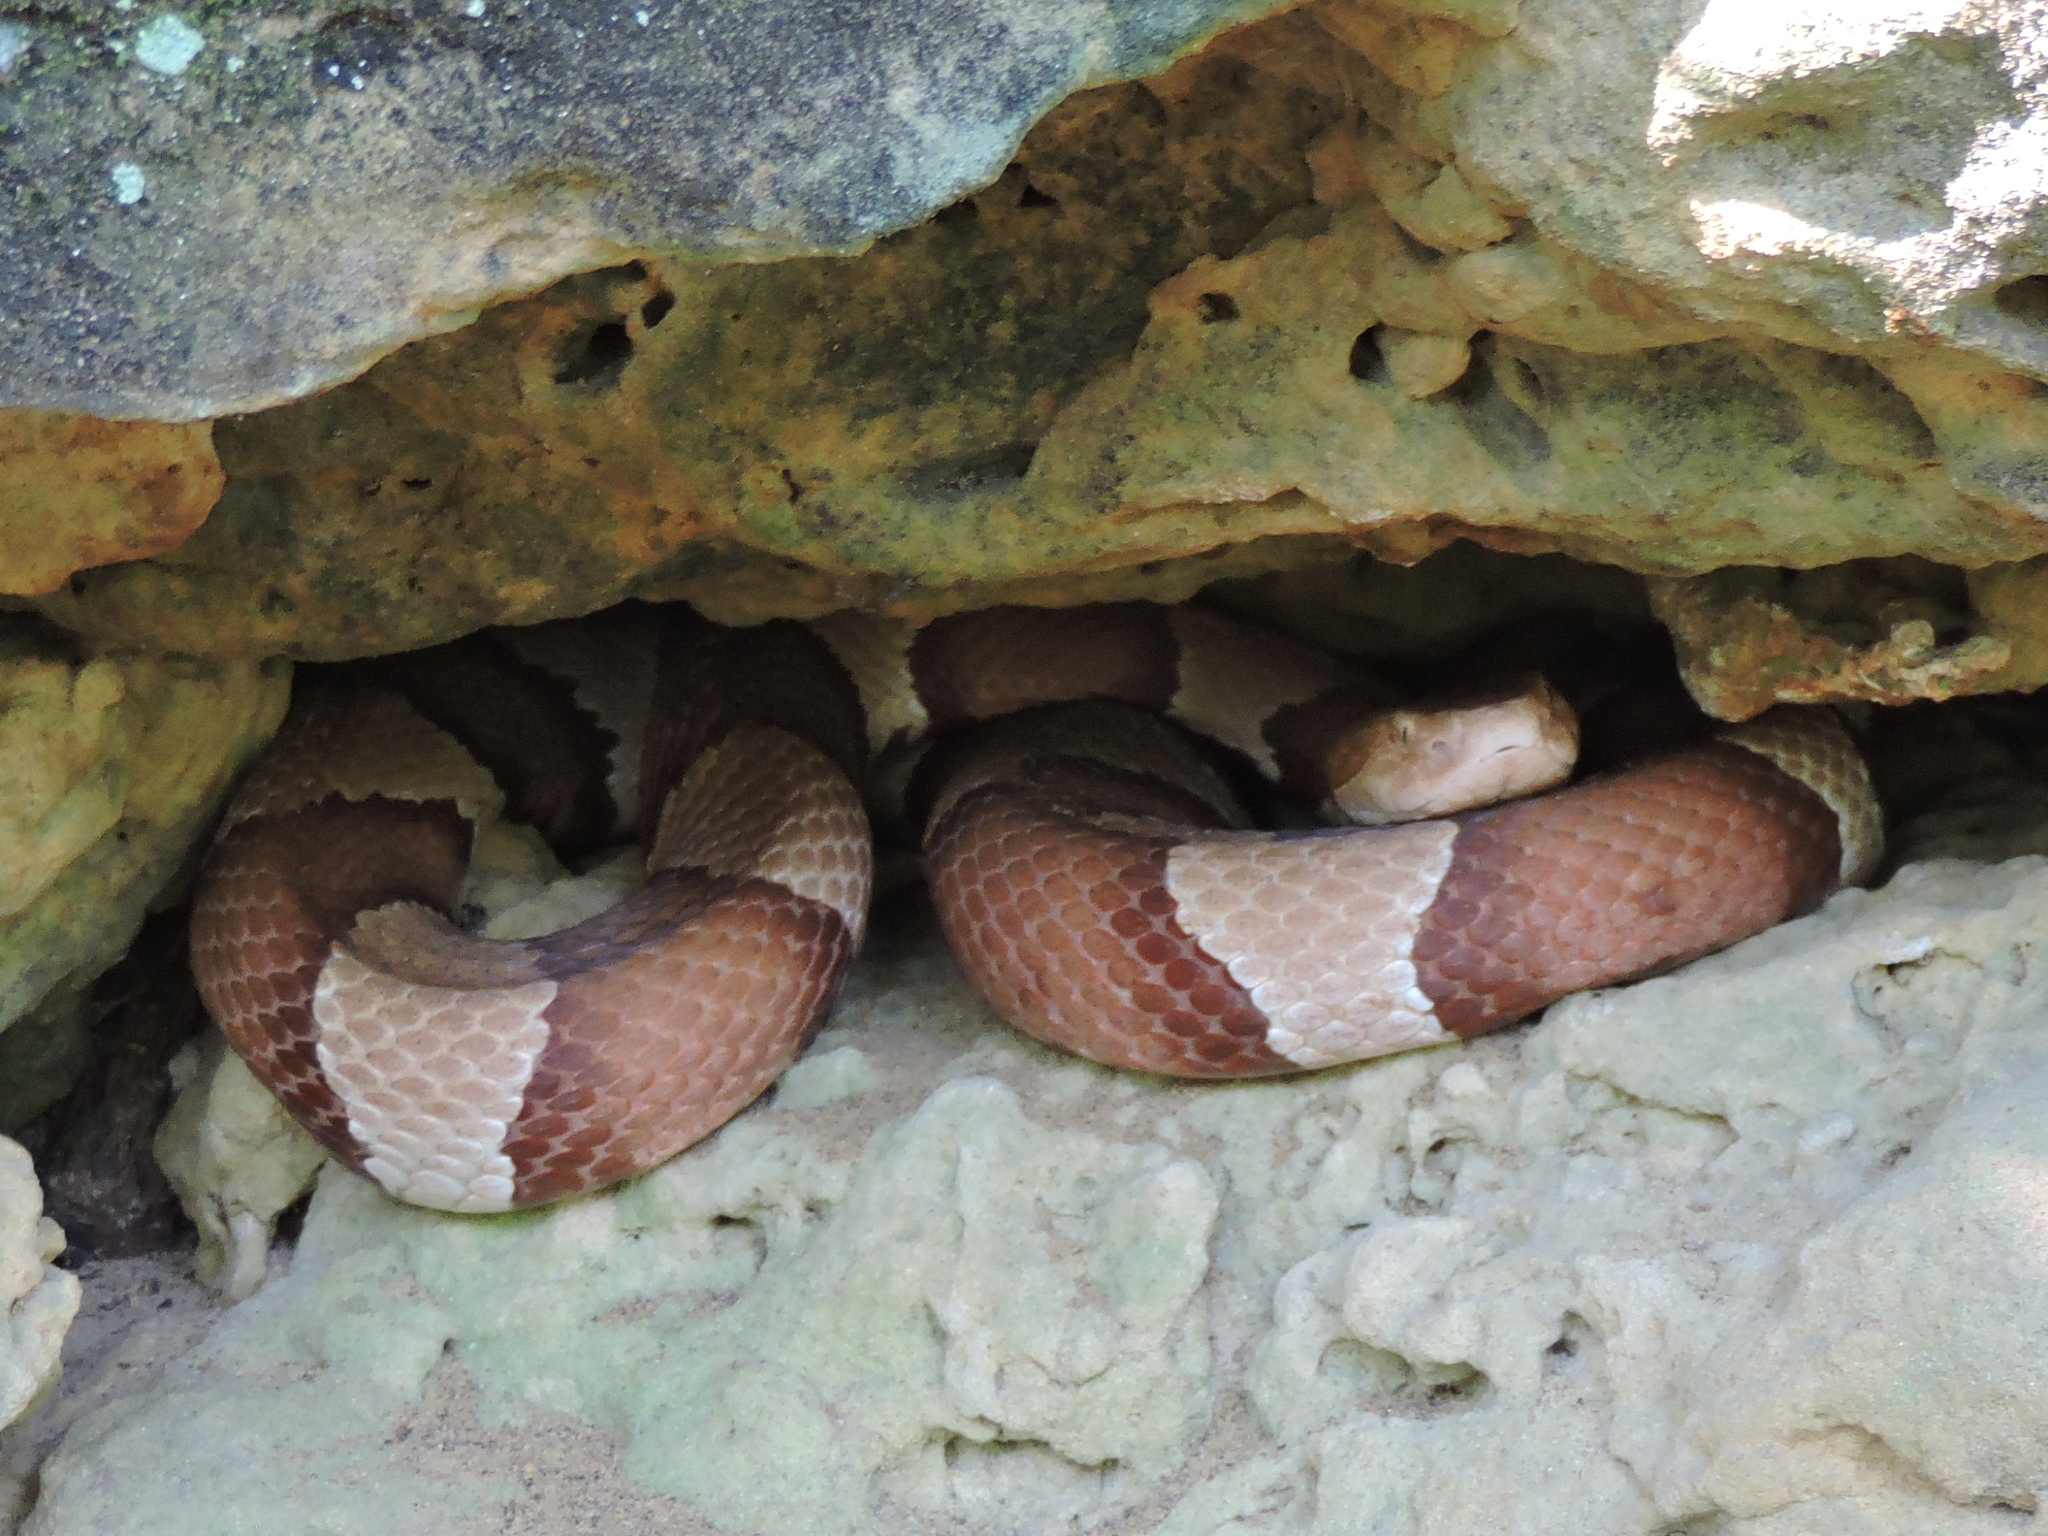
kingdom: Animalia
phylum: Chordata
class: Squamata
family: Viperidae
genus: Agkistrodon
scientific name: Agkistrodon laticinctus
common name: Broad-banded copperhead
